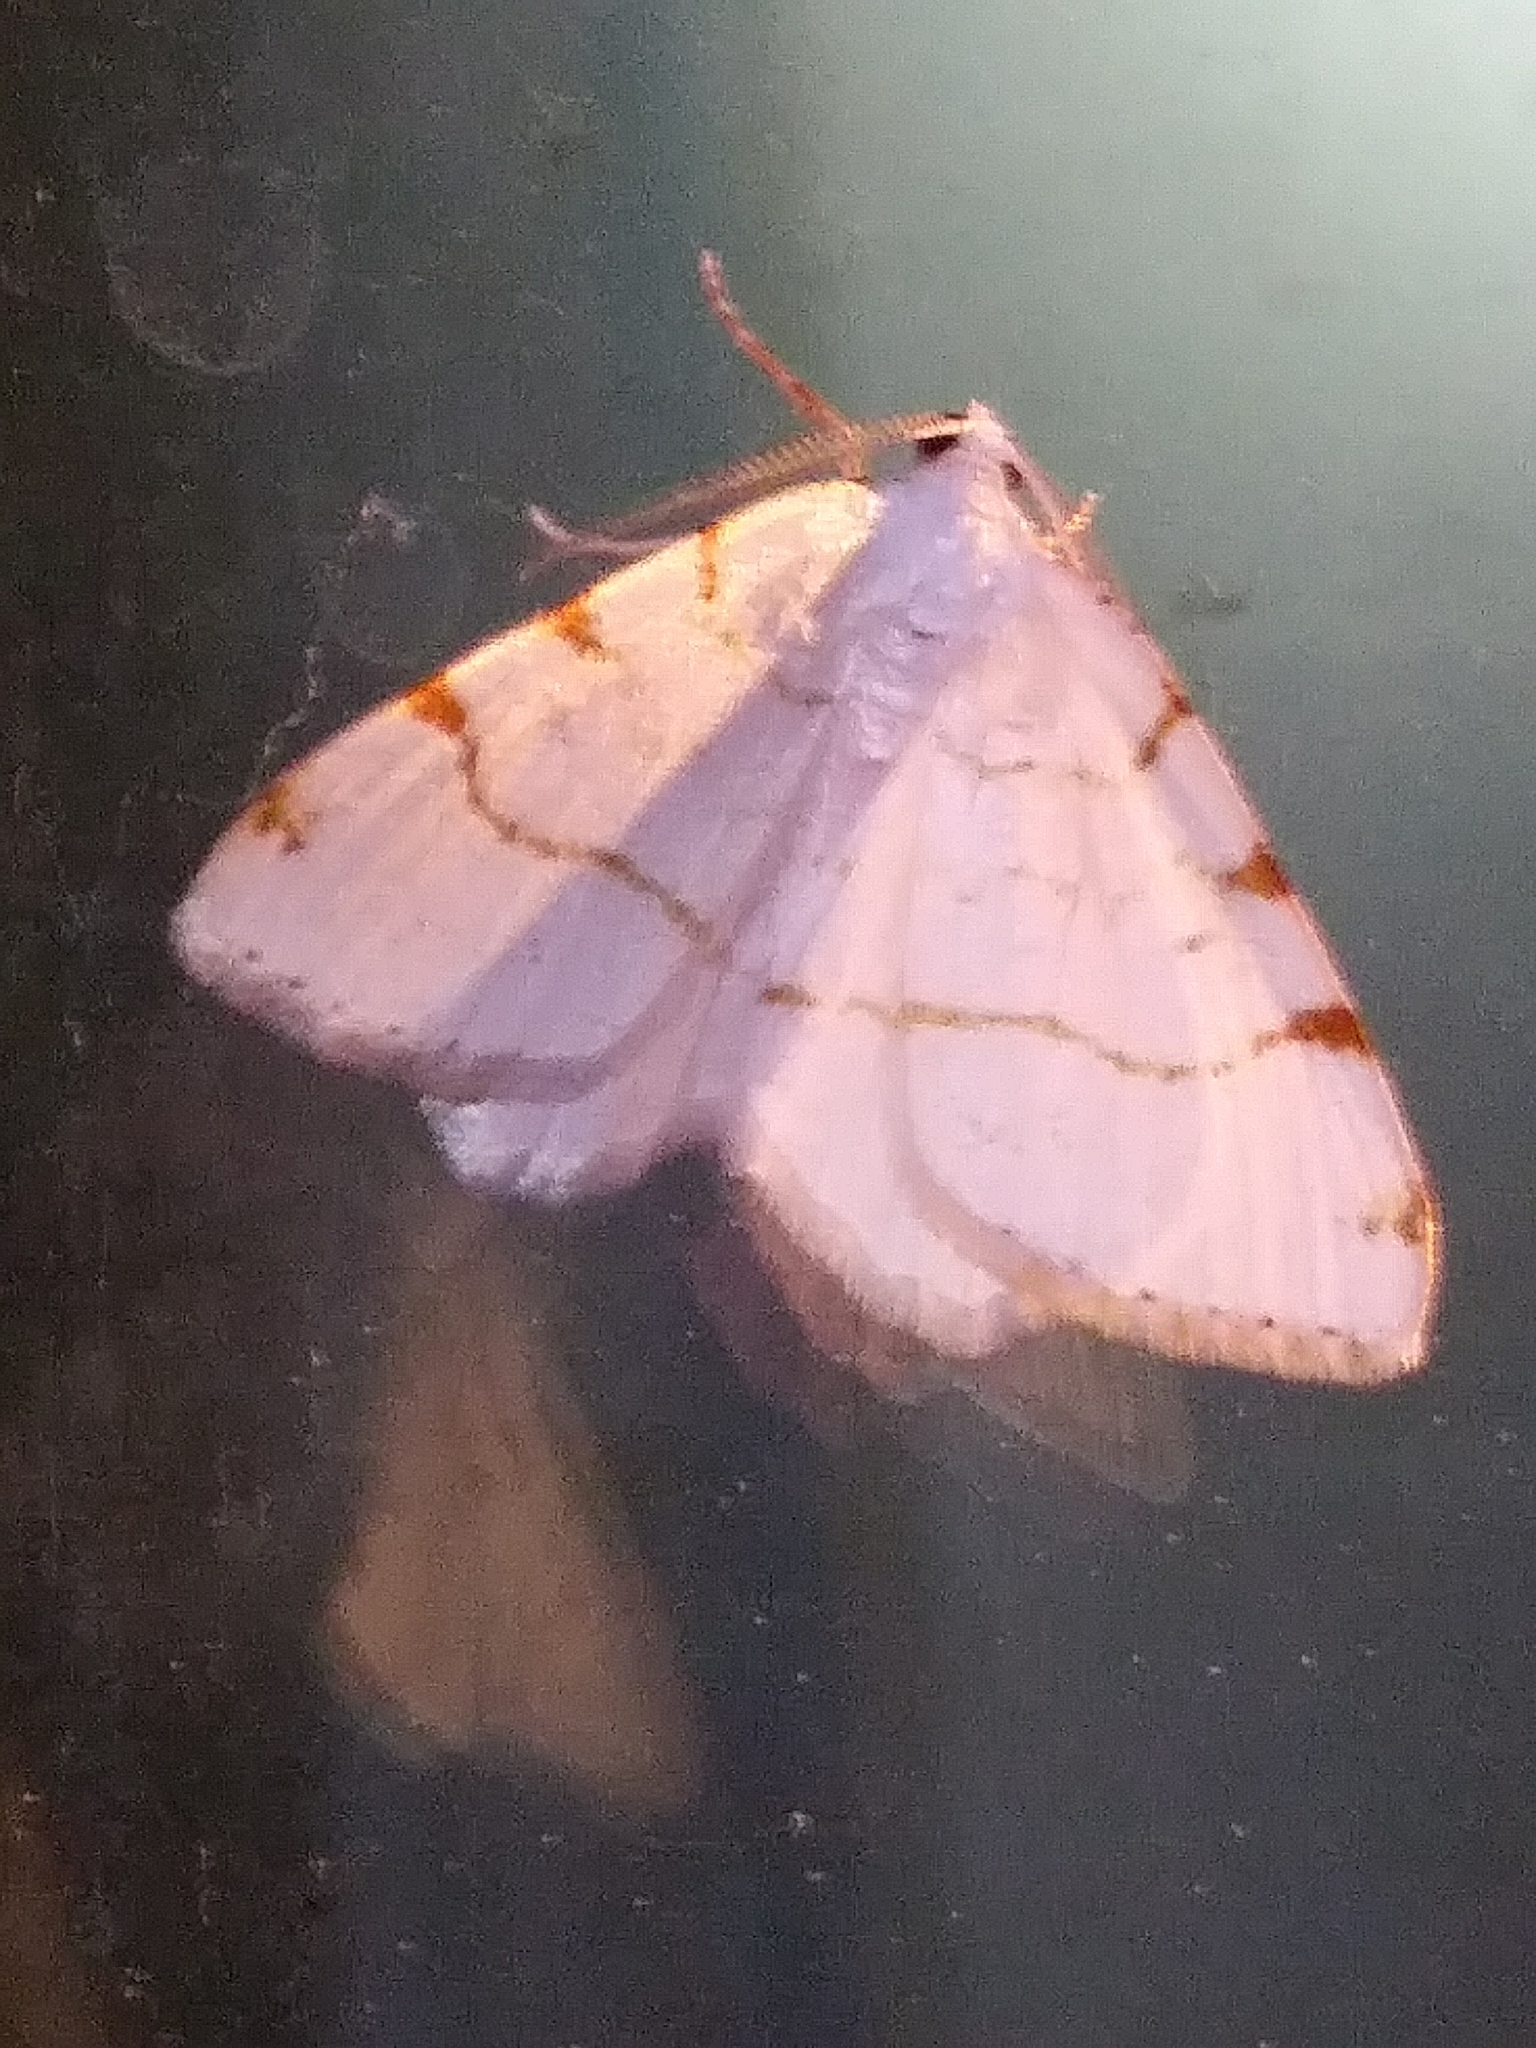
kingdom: Animalia
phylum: Arthropoda
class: Insecta
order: Lepidoptera
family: Geometridae
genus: Macaria
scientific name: Macaria pustularia
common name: Lesser maple spanworm moth
